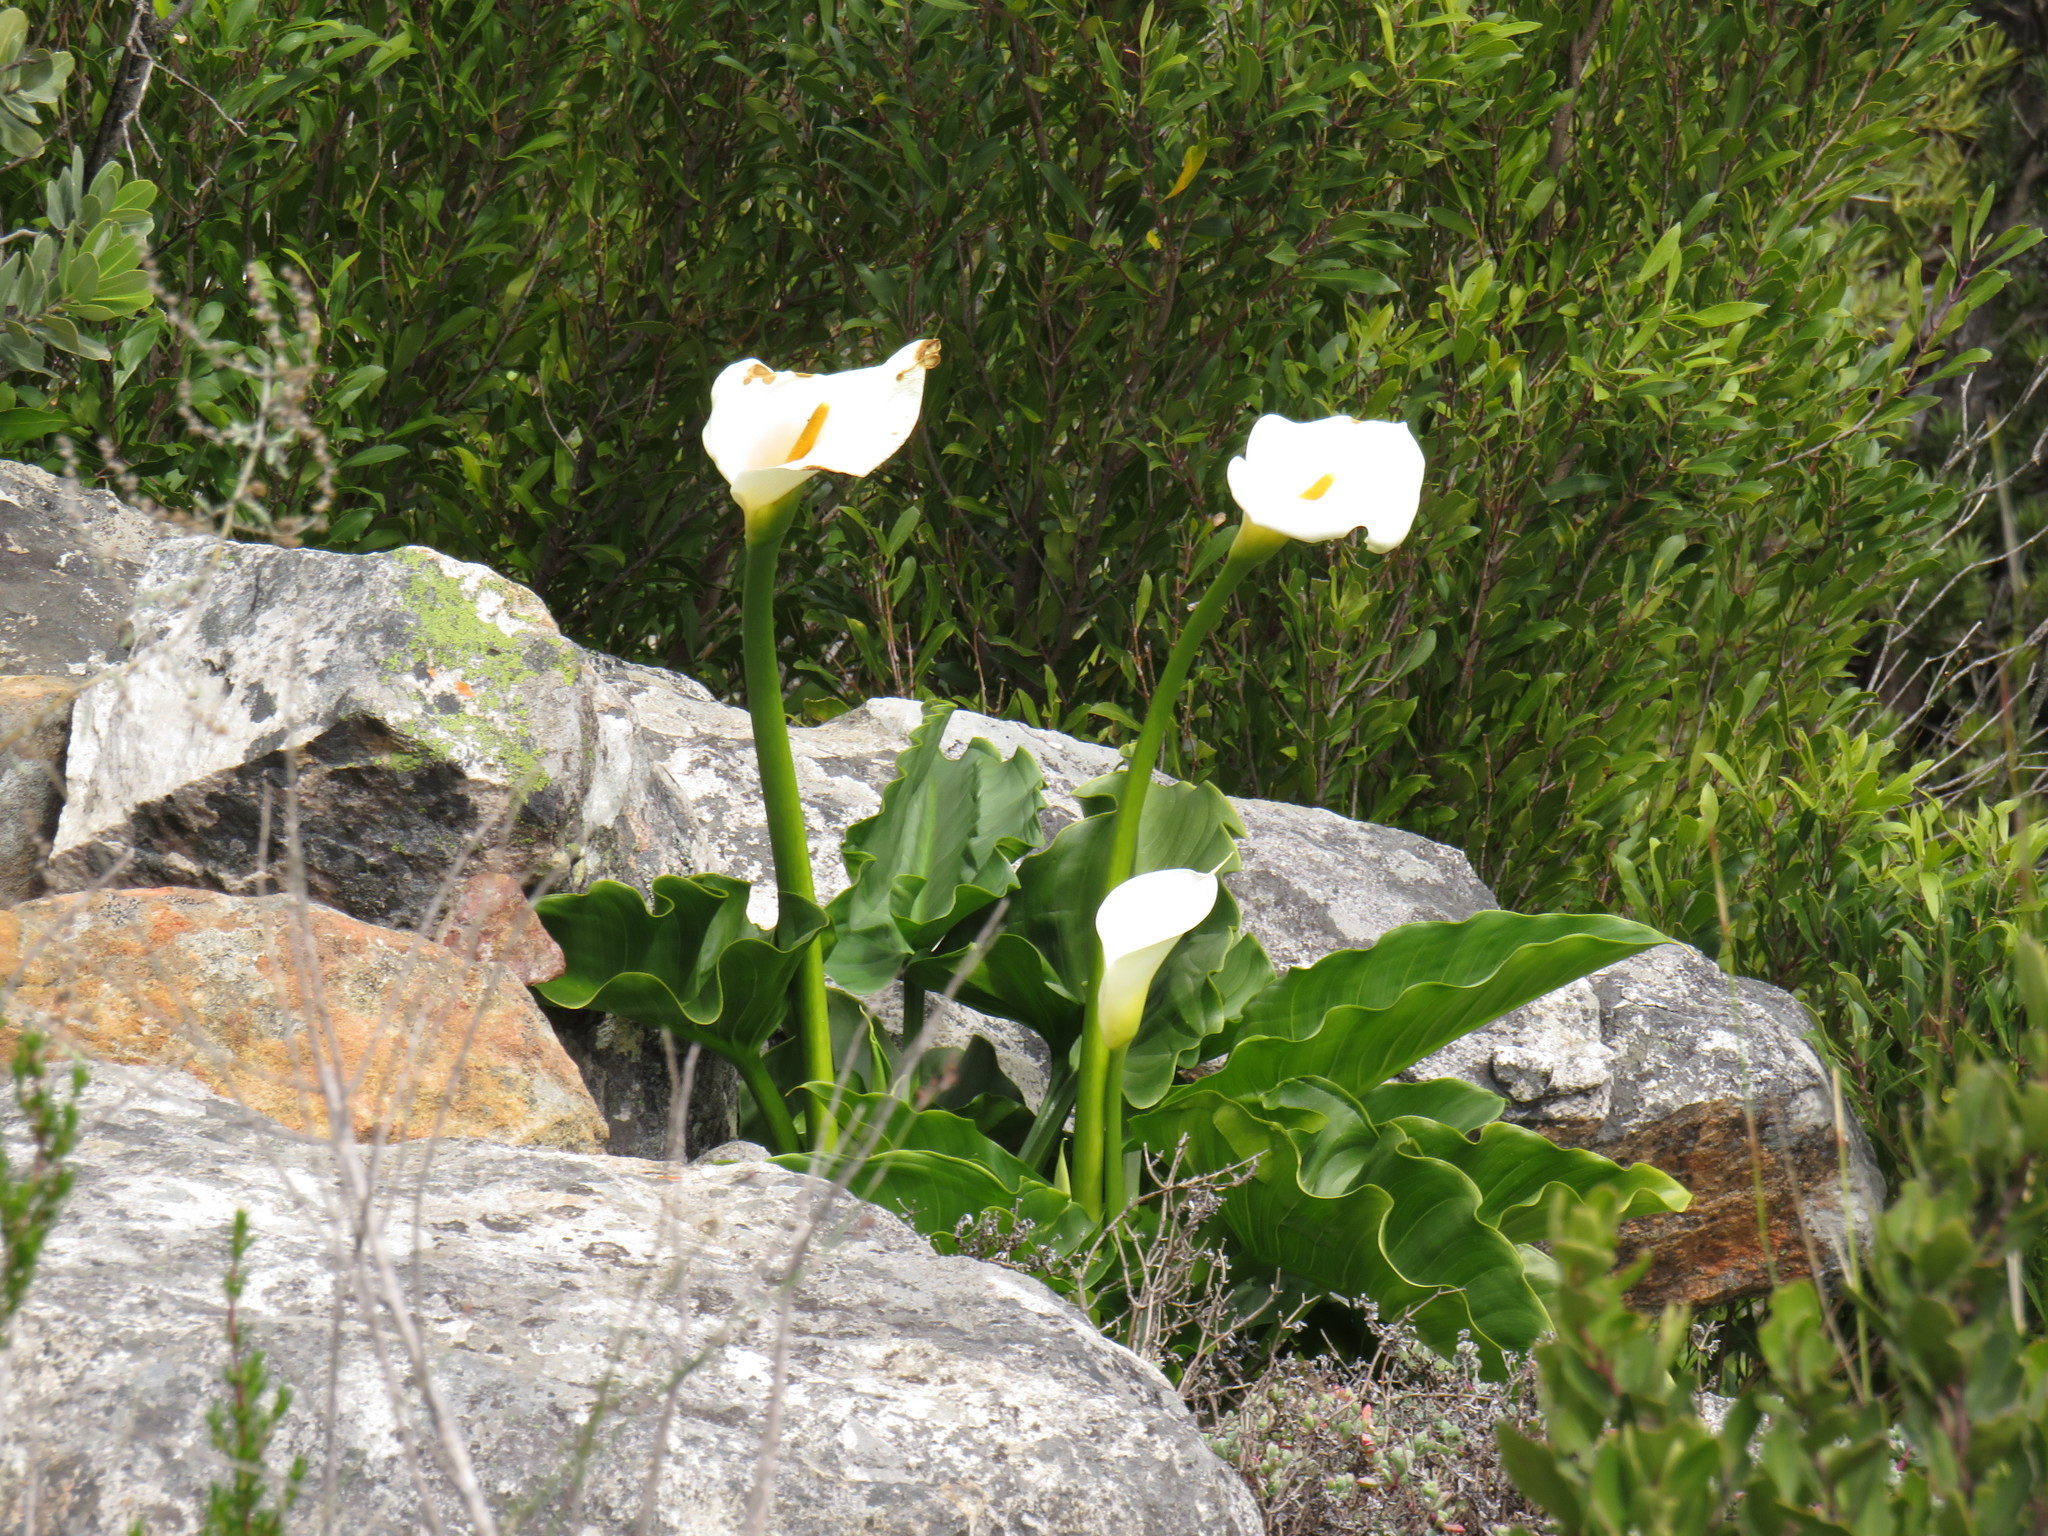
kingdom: Plantae
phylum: Tracheophyta
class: Liliopsida
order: Alismatales
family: Araceae
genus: Zantedeschia
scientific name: Zantedeschia aethiopica
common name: Altar-lily
